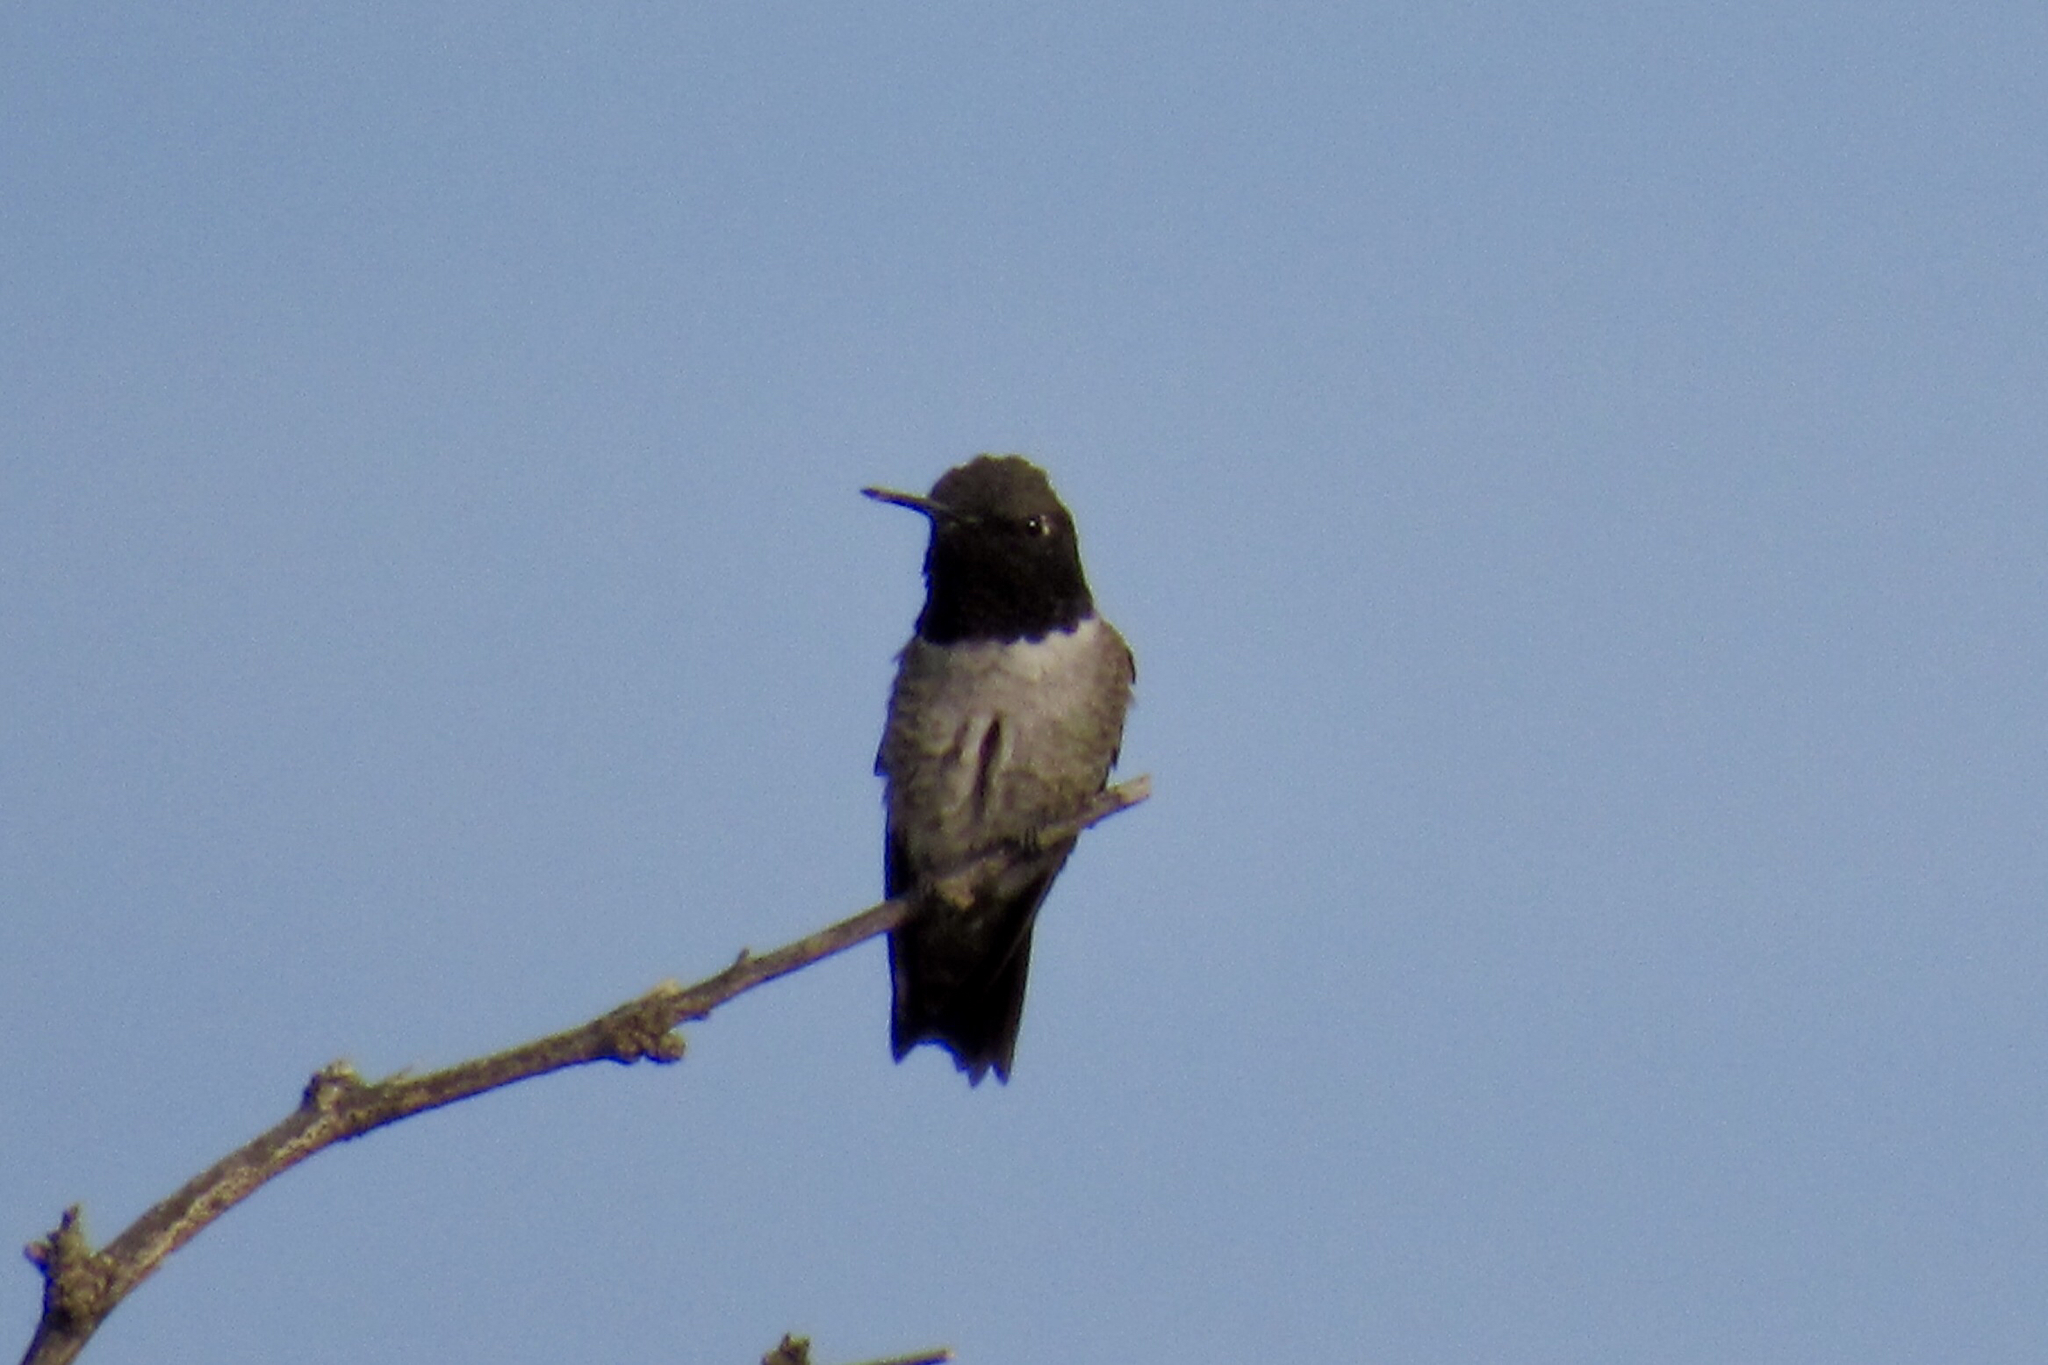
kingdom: Animalia
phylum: Chordata
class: Aves
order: Apodiformes
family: Trochilidae
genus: Archilochus
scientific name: Archilochus alexandri
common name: Black-chinned hummingbird
